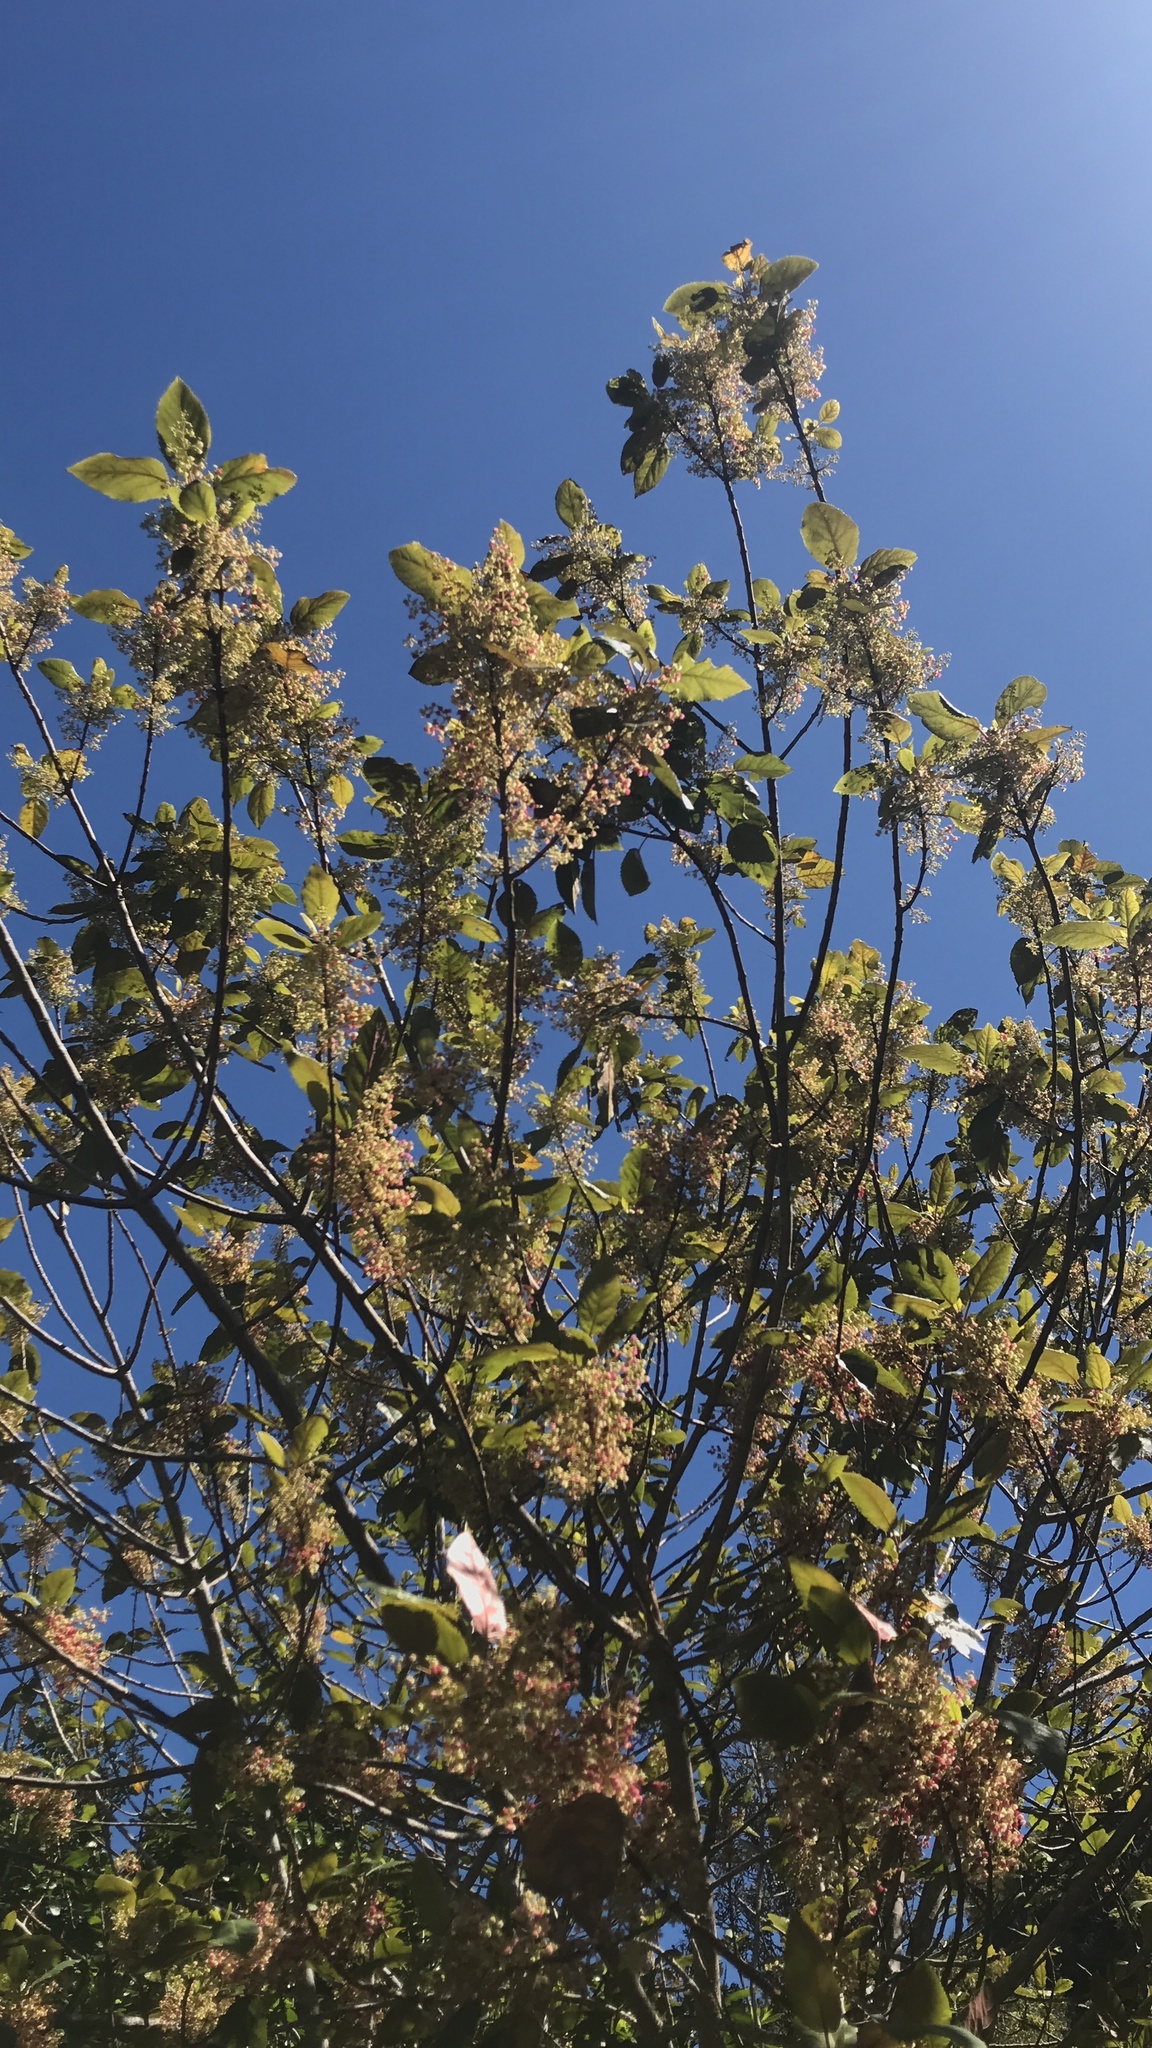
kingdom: Plantae
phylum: Tracheophyta
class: Magnoliopsida
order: Oxalidales
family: Elaeocarpaceae
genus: Aristotelia
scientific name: Aristotelia serrata
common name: New zealand wineberry
